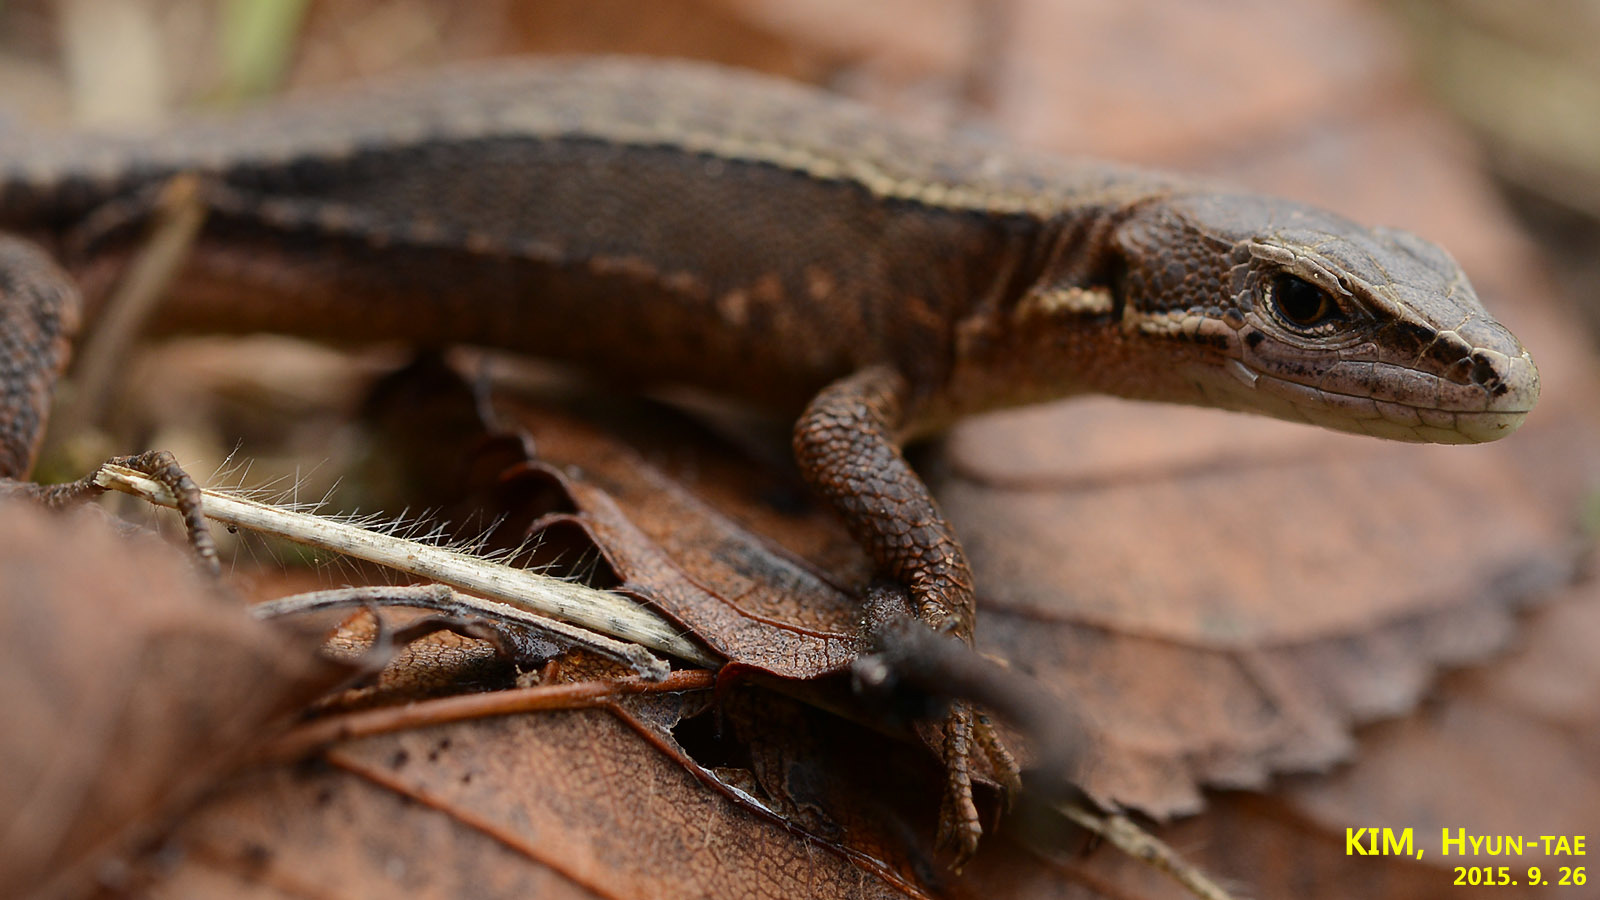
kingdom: Animalia
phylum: Chordata
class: Squamata
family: Lacertidae
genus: Takydromus
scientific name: Takydromus amurensis
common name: Amur grass lizard
